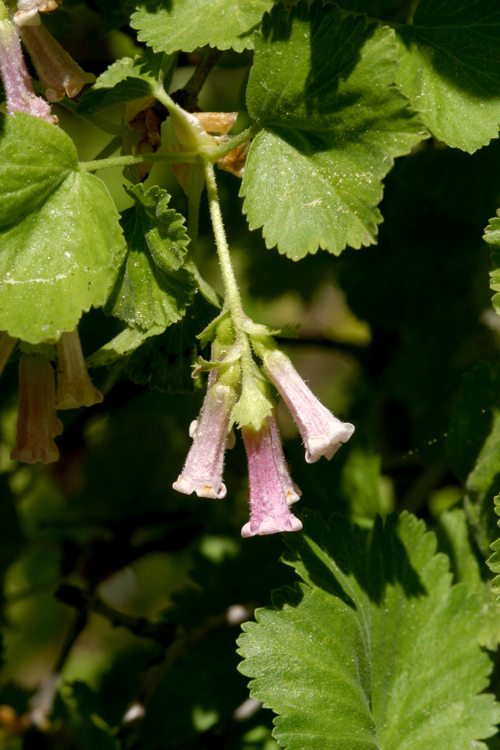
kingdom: Plantae
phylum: Tracheophyta
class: Magnoliopsida
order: Saxifragales
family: Grossulariaceae
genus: Ribes
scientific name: Ribes cereum
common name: Wax currant
